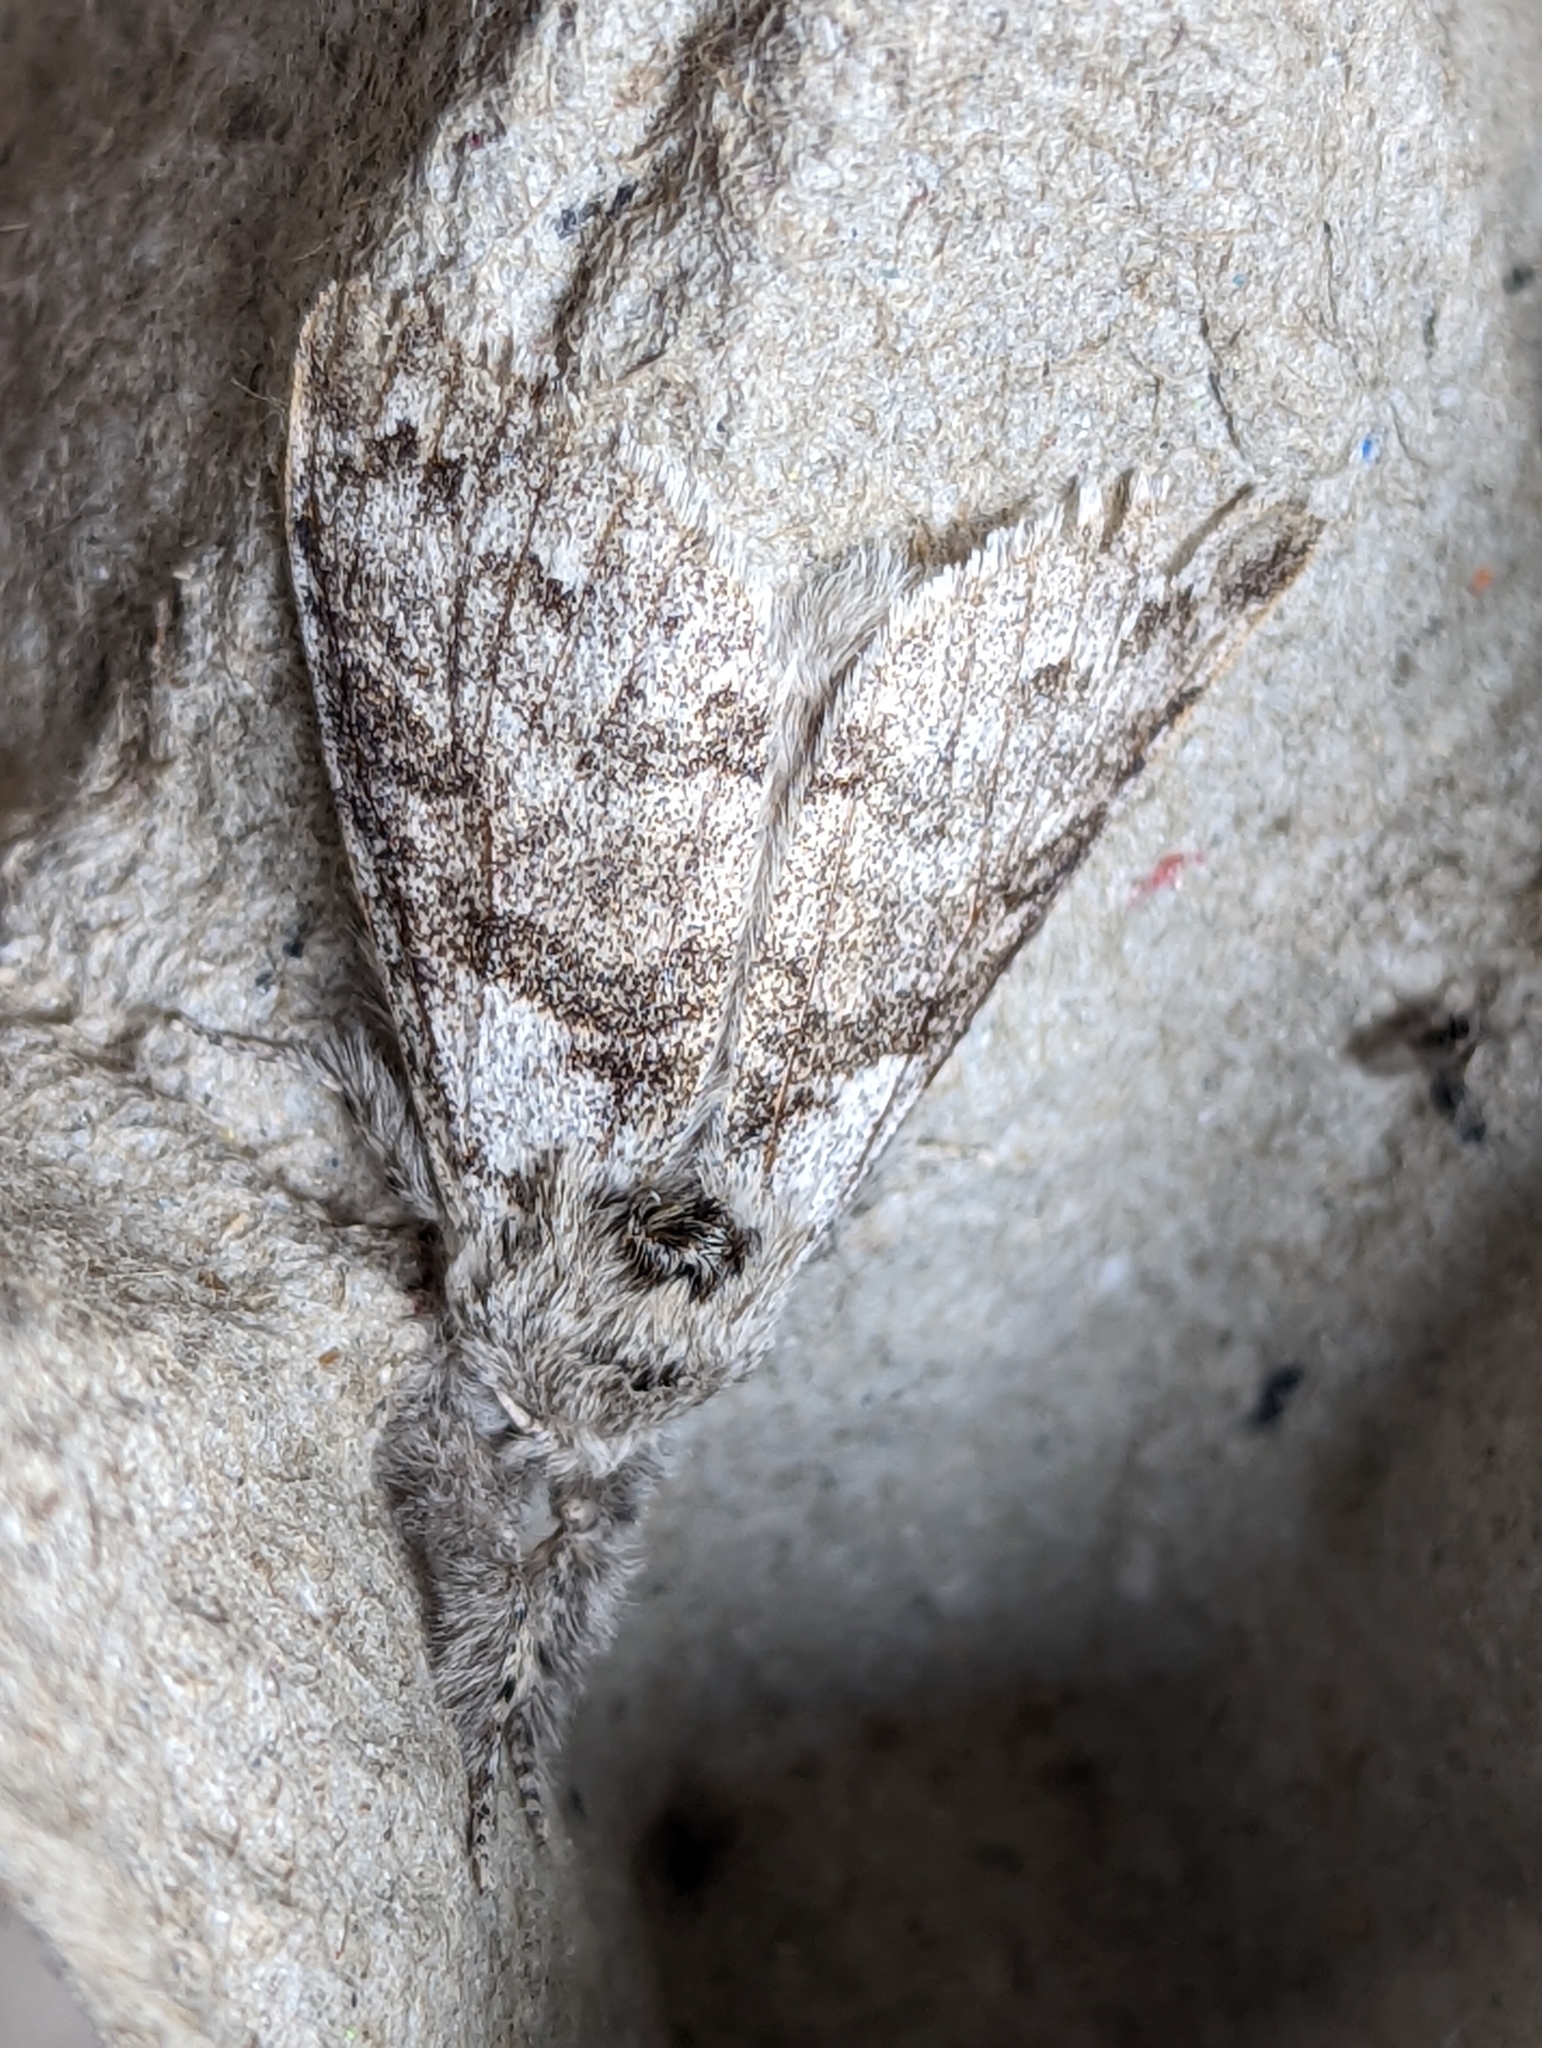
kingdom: Animalia
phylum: Arthropoda
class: Insecta
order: Lepidoptera
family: Erebidae
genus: Calliteara
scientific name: Calliteara pudibunda
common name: Pale tussock
